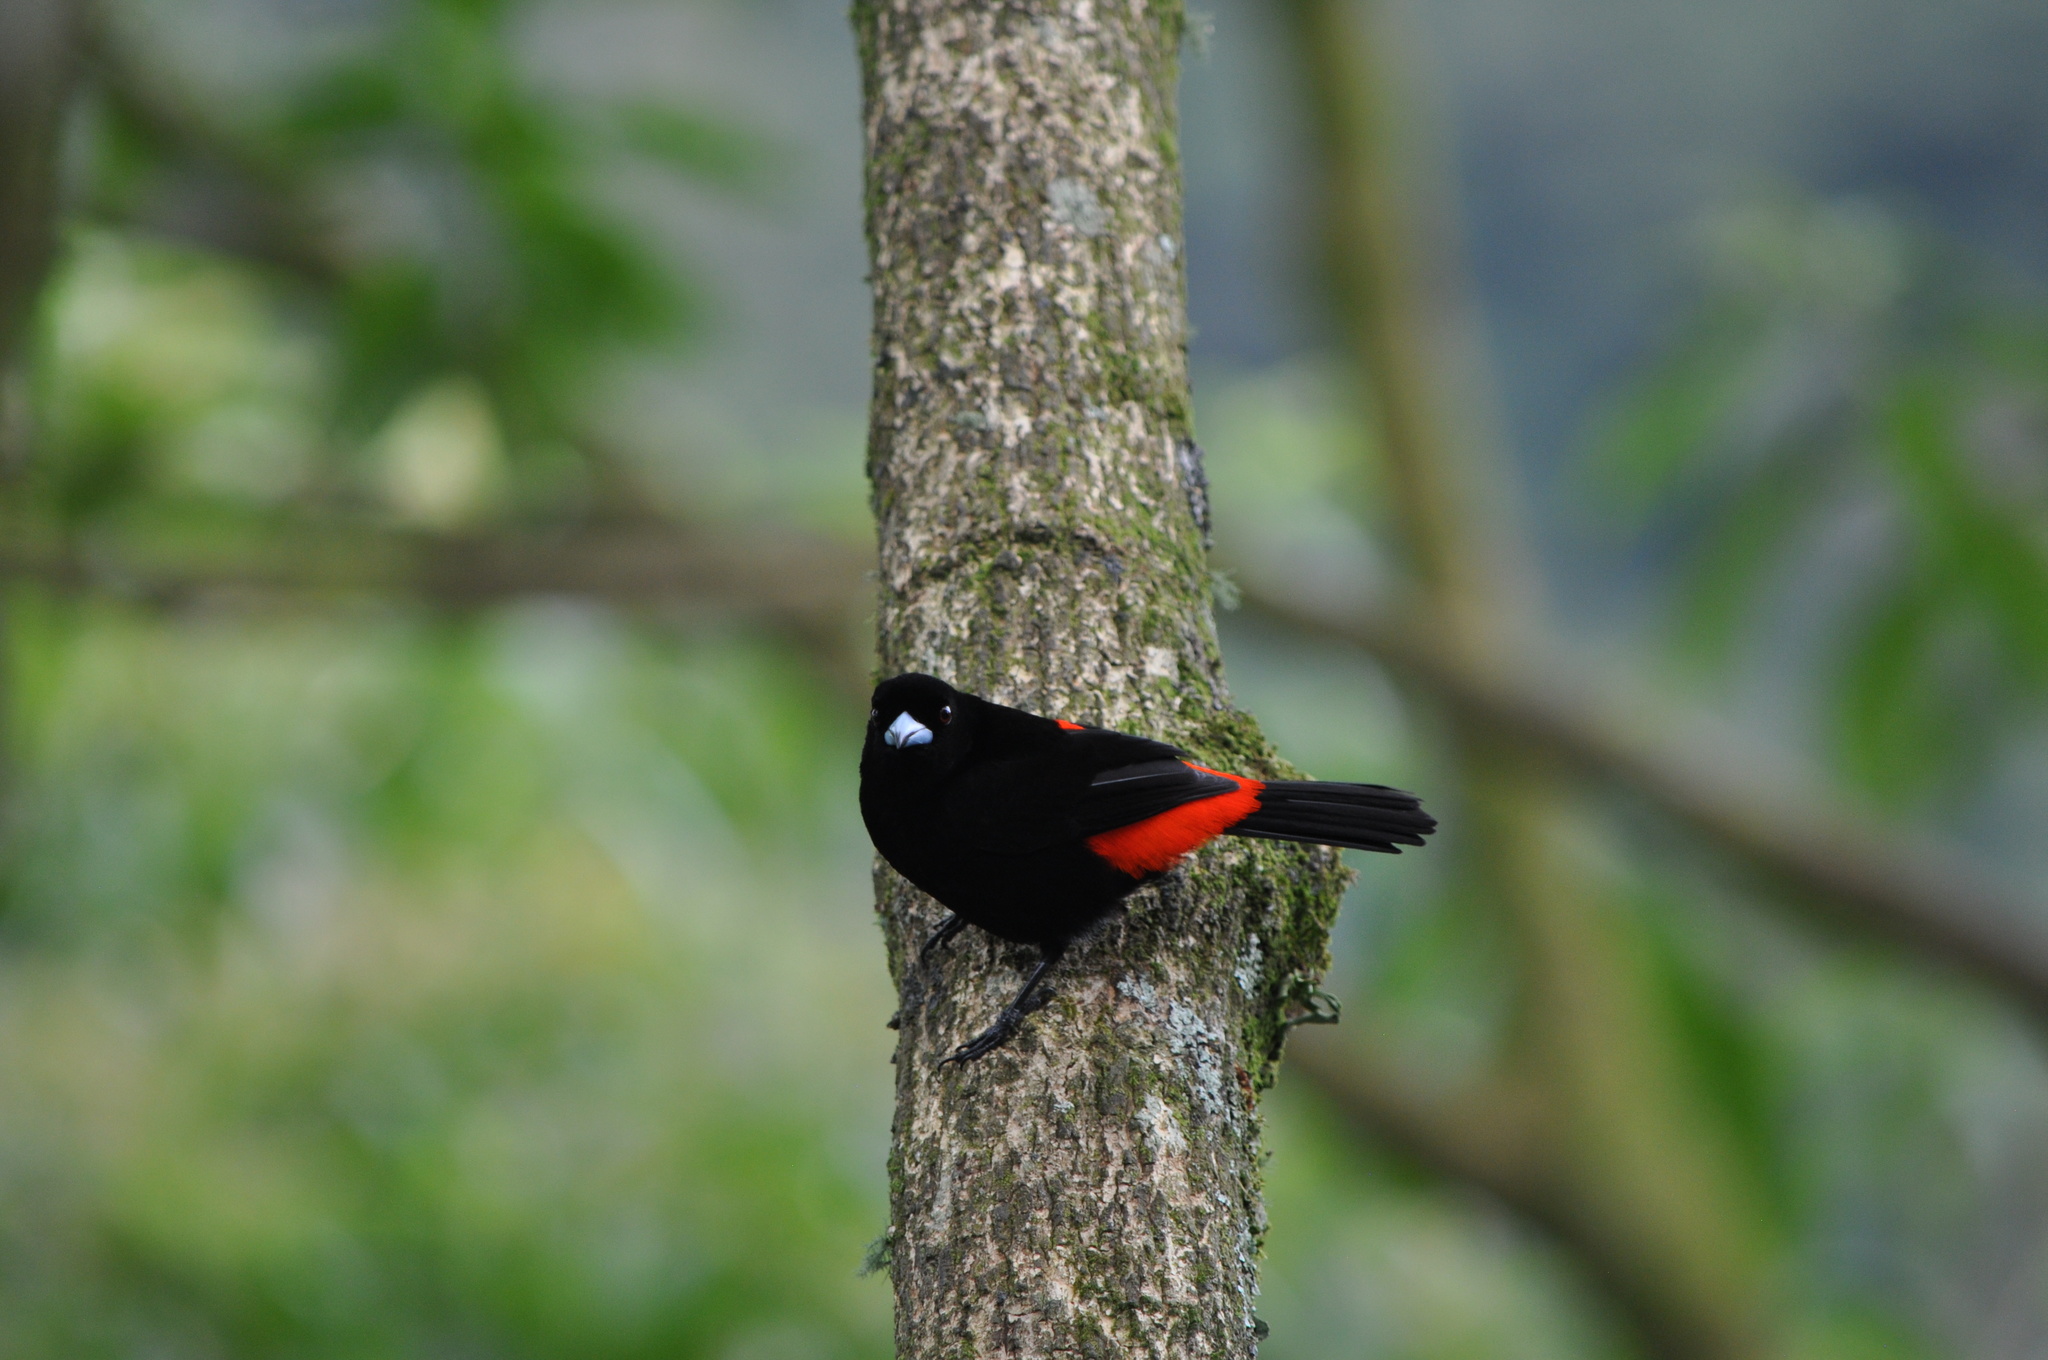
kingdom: Animalia
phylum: Chordata
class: Aves
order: Passeriformes
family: Thraupidae
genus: Ramphocelus
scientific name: Ramphocelus passerinii
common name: Passerini's tanager
